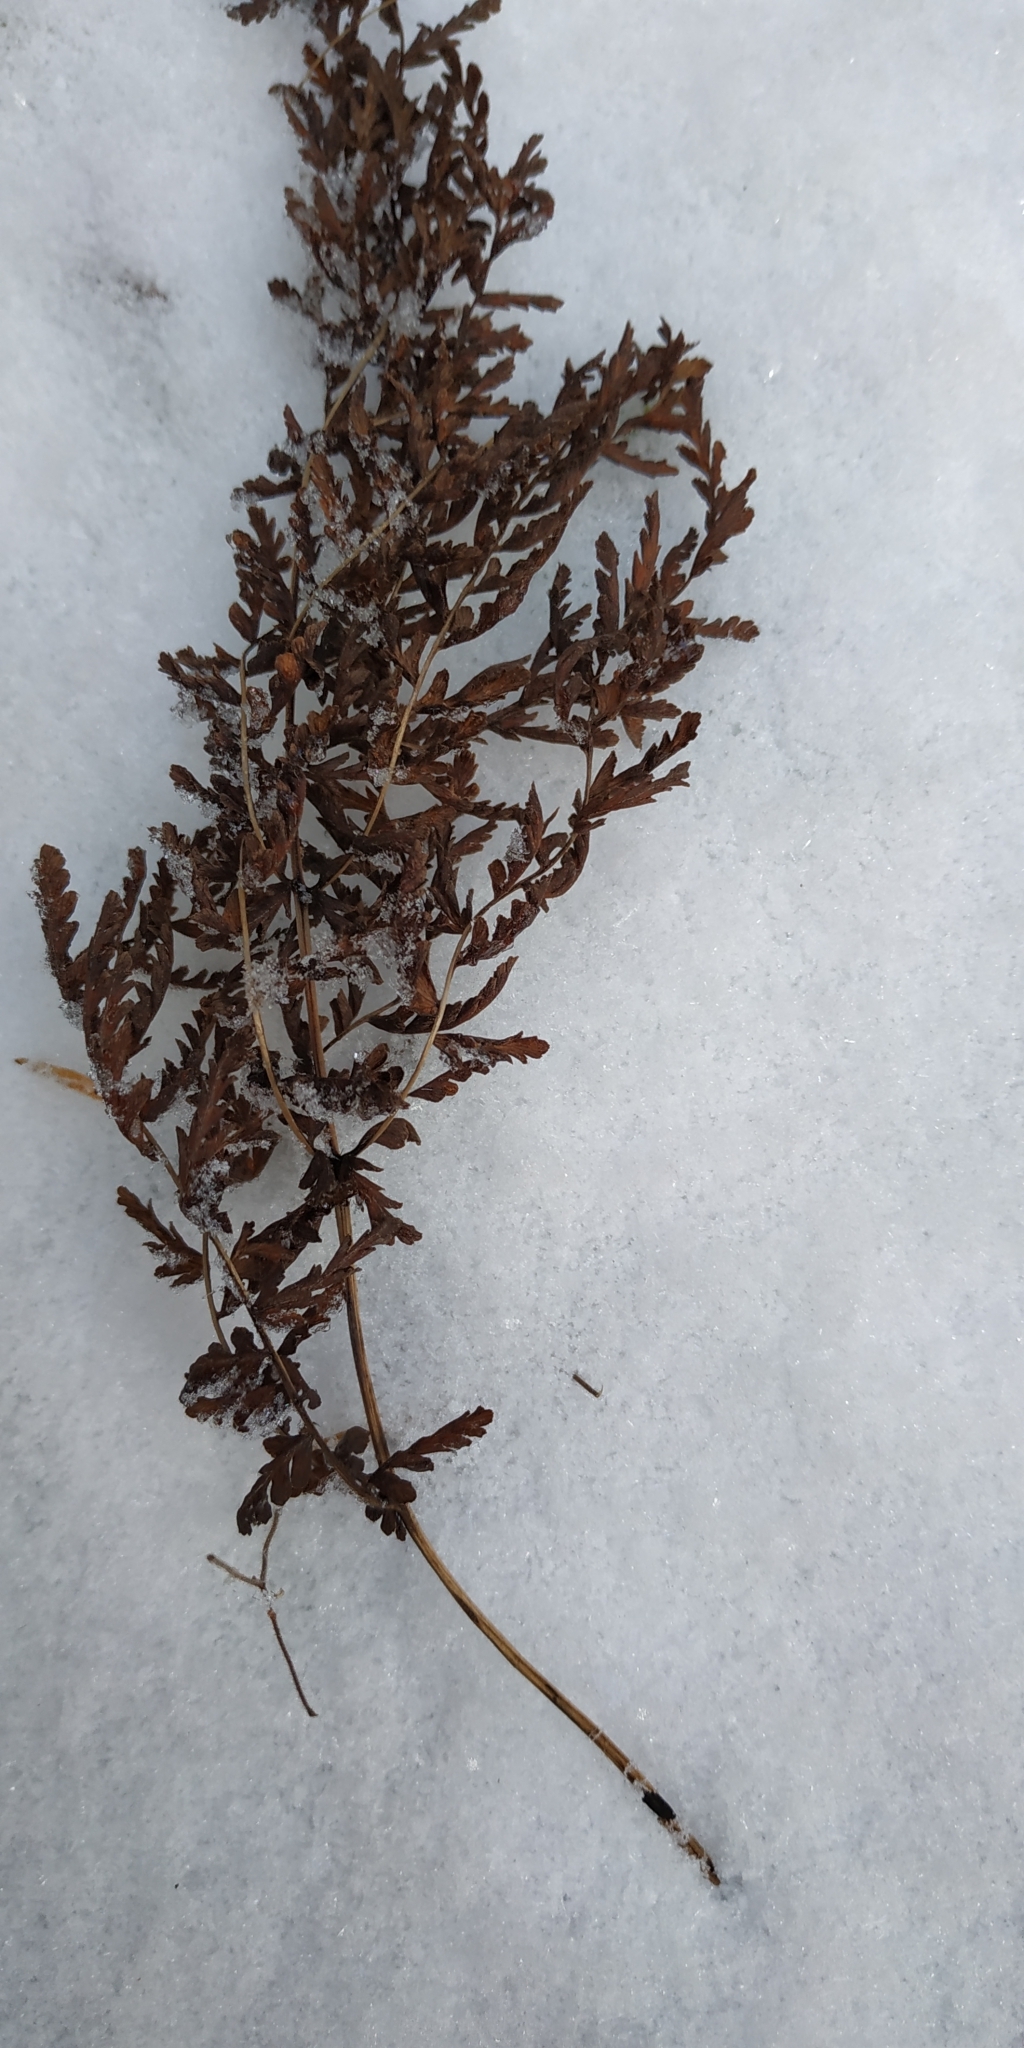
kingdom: Plantae
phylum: Tracheophyta
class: Magnoliopsida
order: Asterales
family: Asteraceae
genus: Tanacetum
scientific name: Tanacetum vulgare
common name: Common tansy
